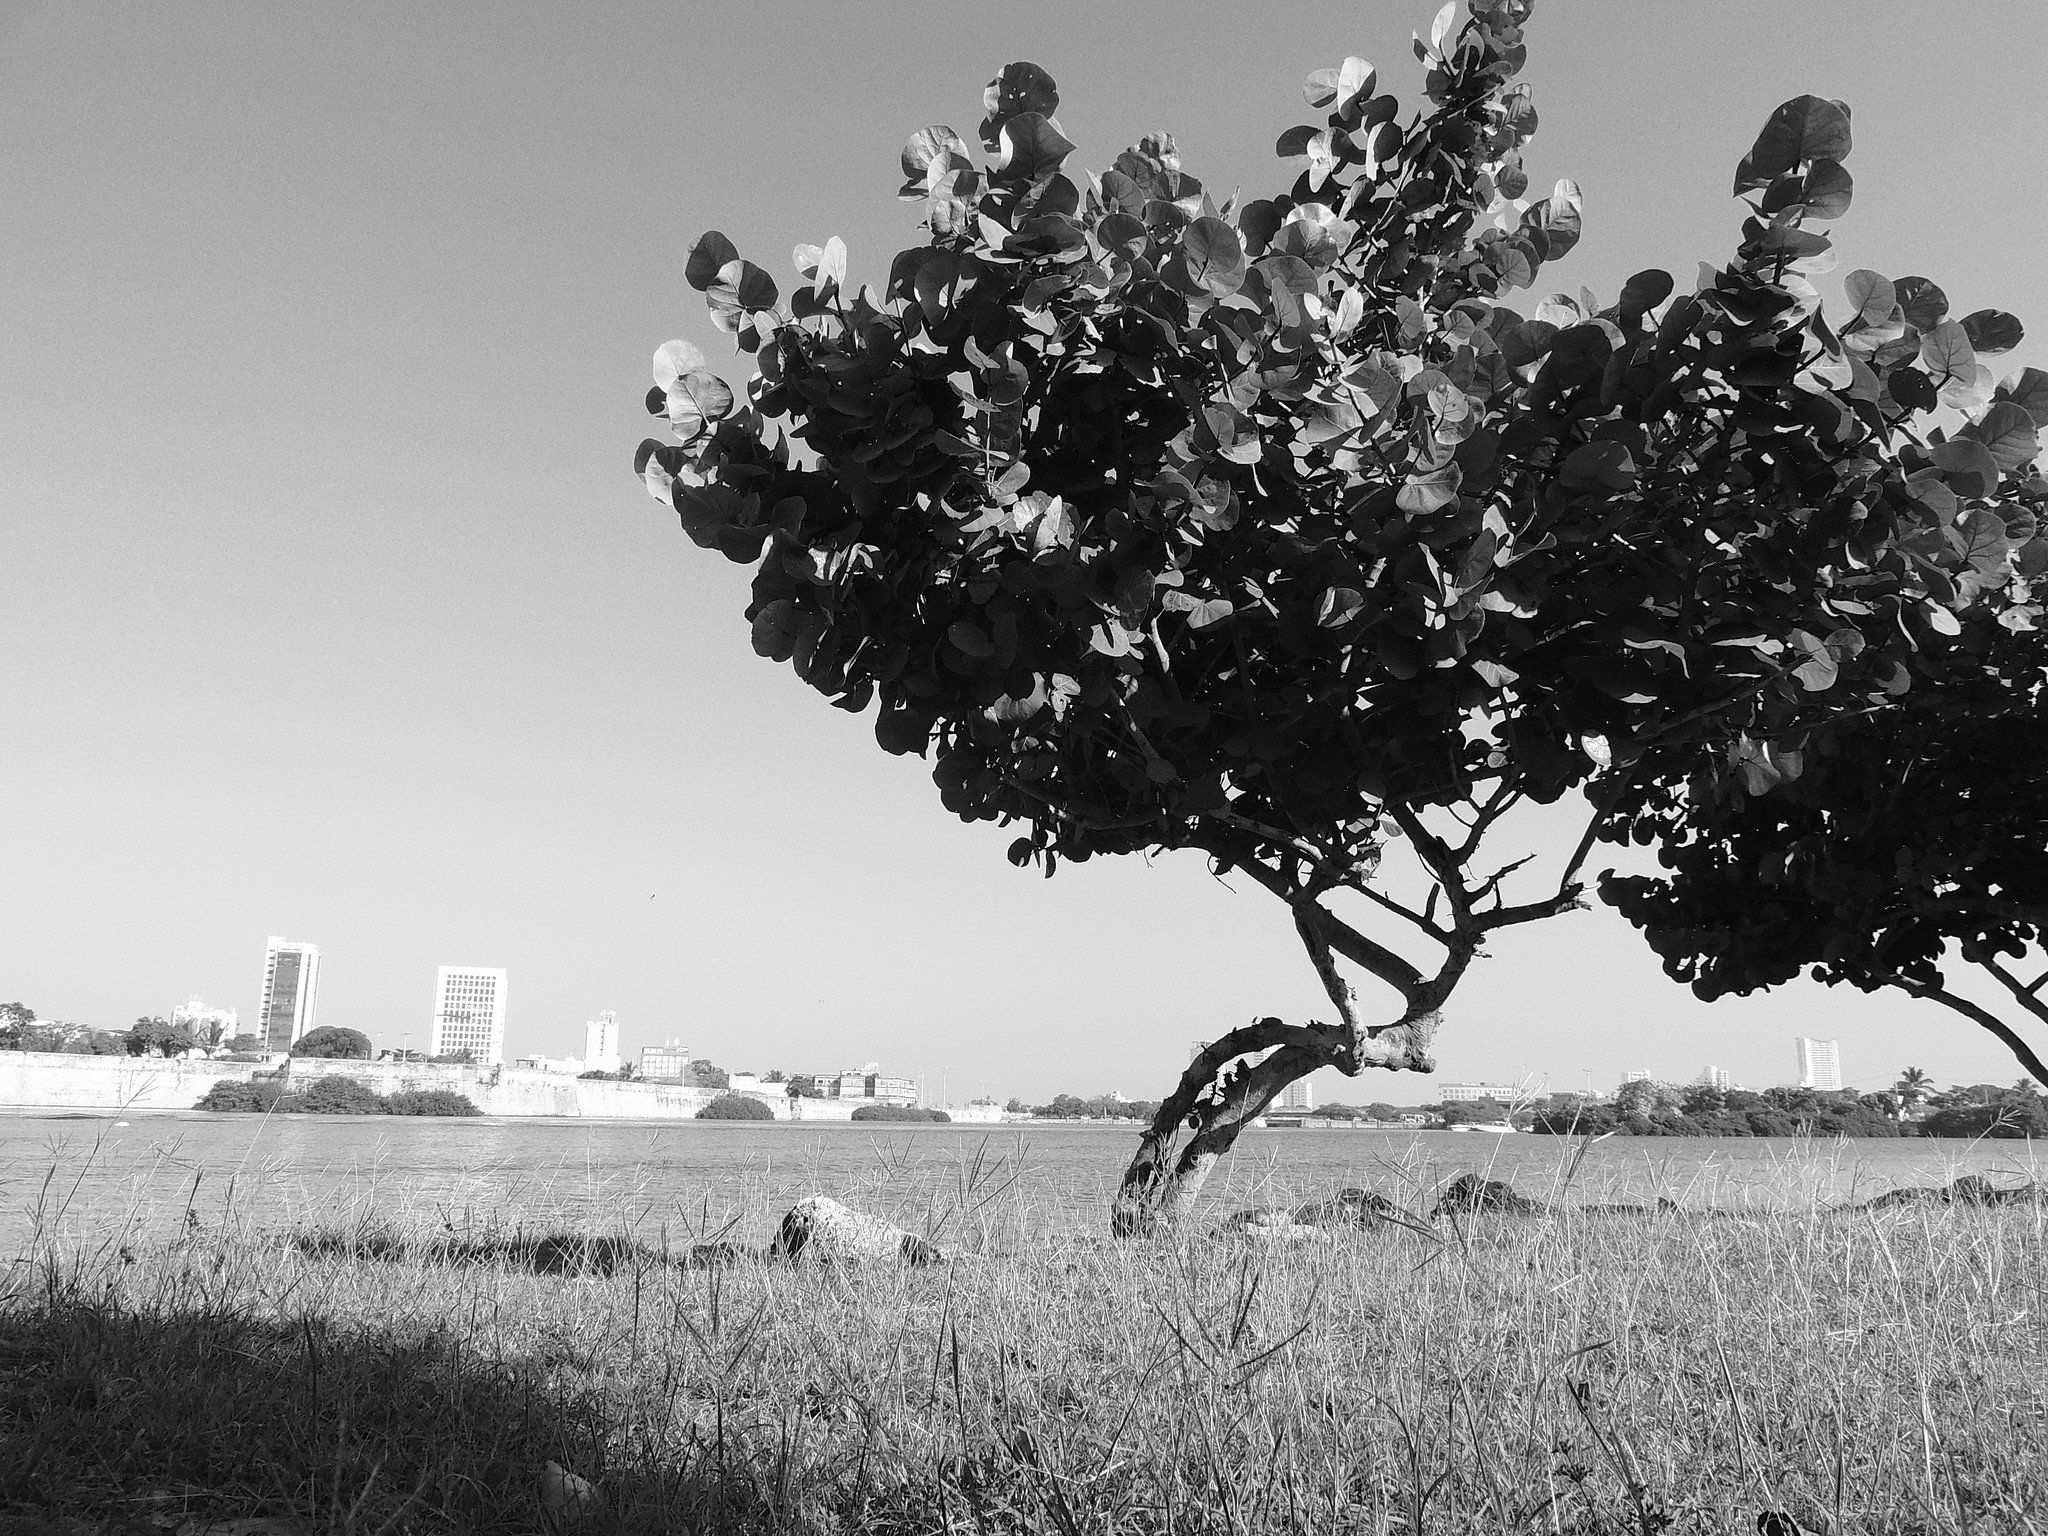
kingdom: Plantae
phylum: Tracheophyta
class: Magnoliopsida
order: Caryophyllales
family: Polygonaceae
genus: Coccoloba
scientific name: Coccoloba uvifera
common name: Seagrape
